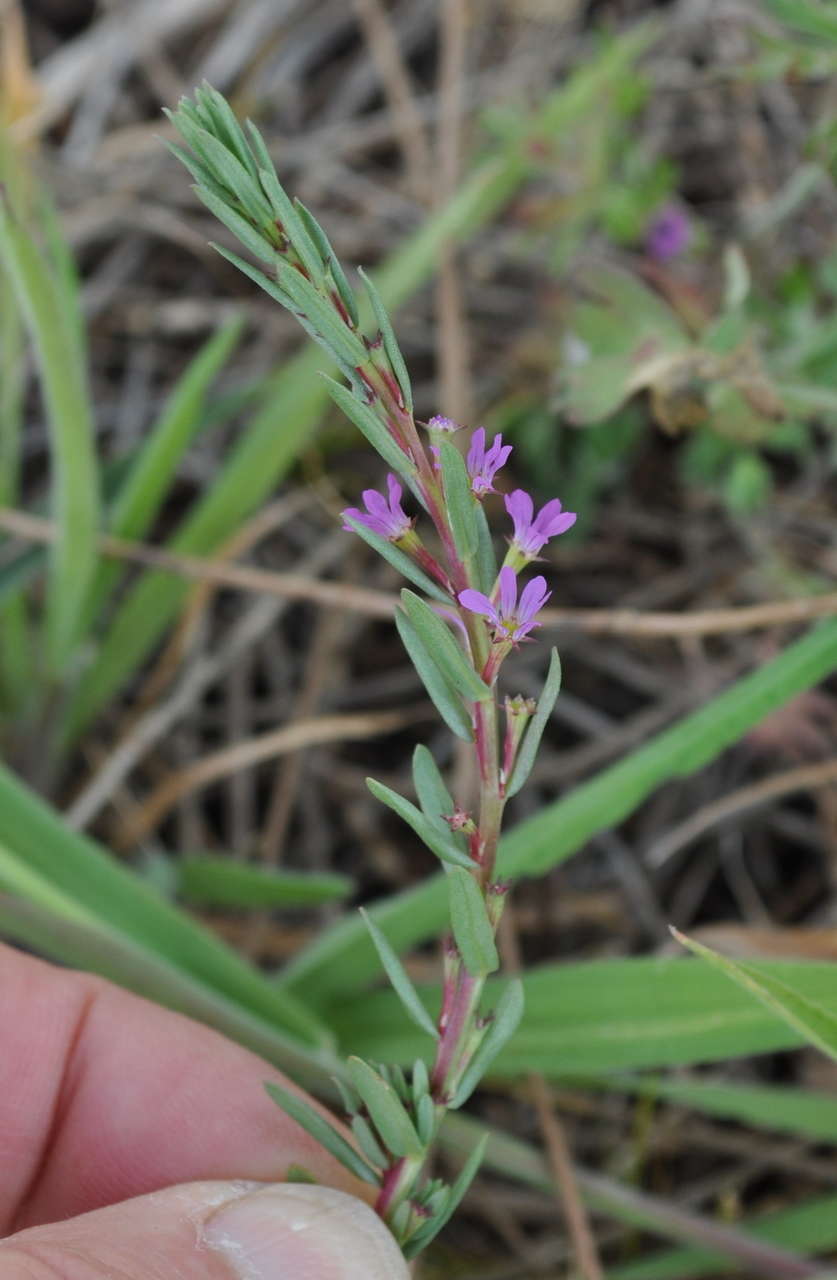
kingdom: Plantae
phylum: Tracheophyta
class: Magnoliopsida
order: Myrtales
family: Lythraceae
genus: Lythrum
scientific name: Lythrum hyssopifolia
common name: Grass-poly
